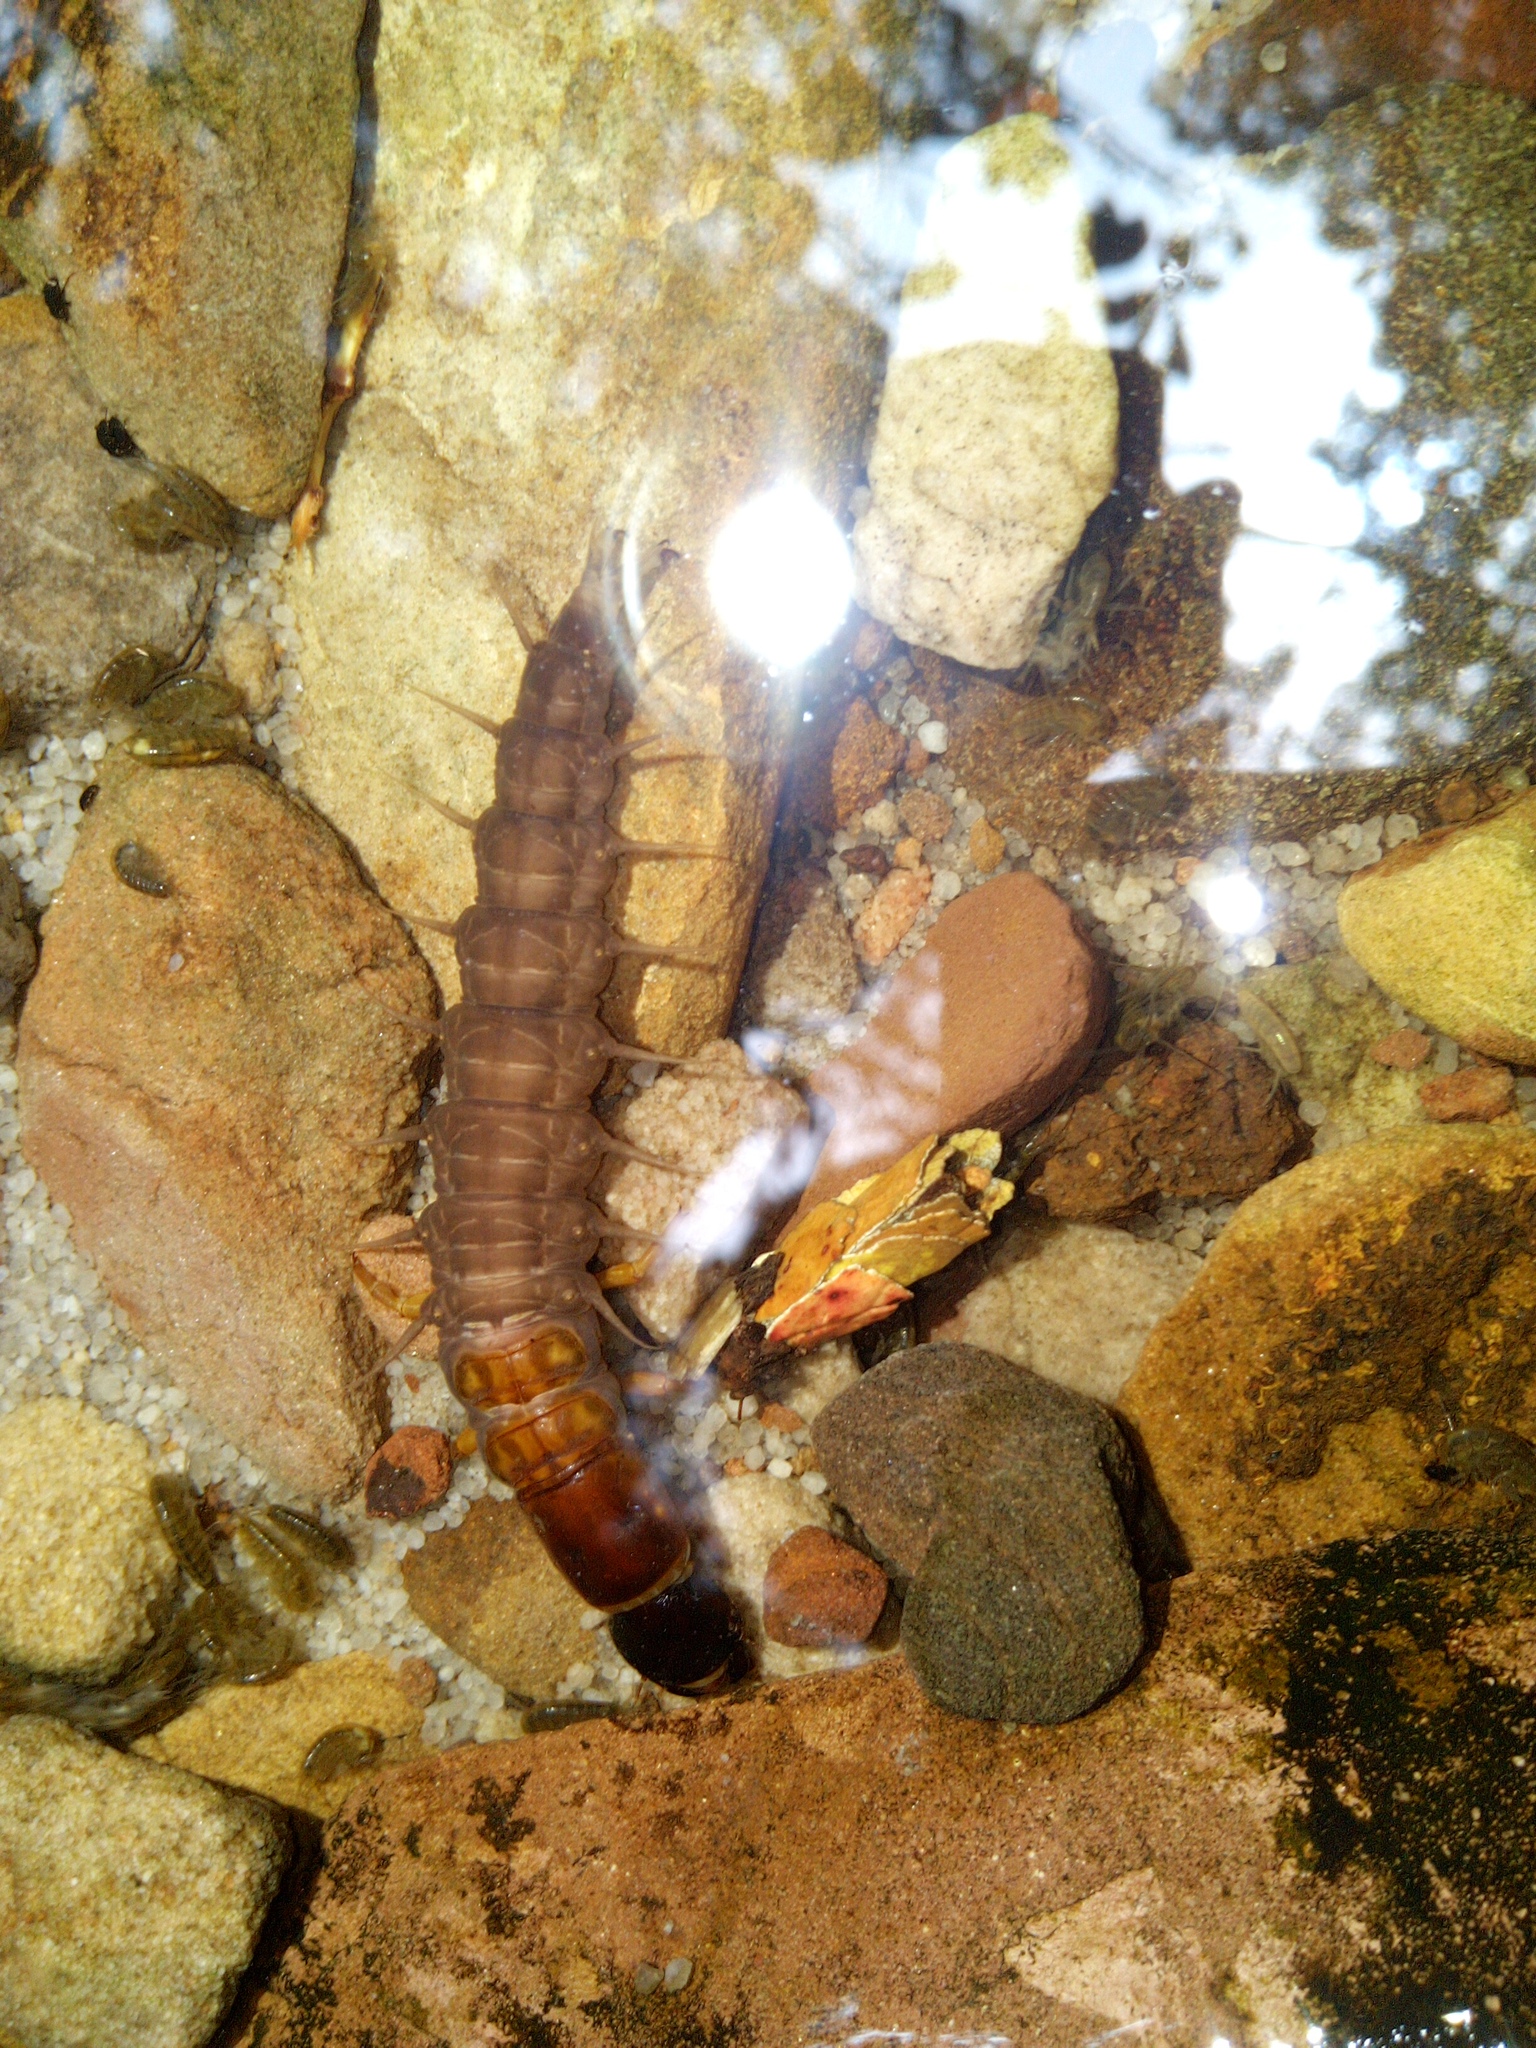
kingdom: Animalia
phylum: Arthropoda
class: Insecta
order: Megaloptera
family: Corydalidae
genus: Taeniochauliodes
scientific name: Taeniochauliodes fuscus
